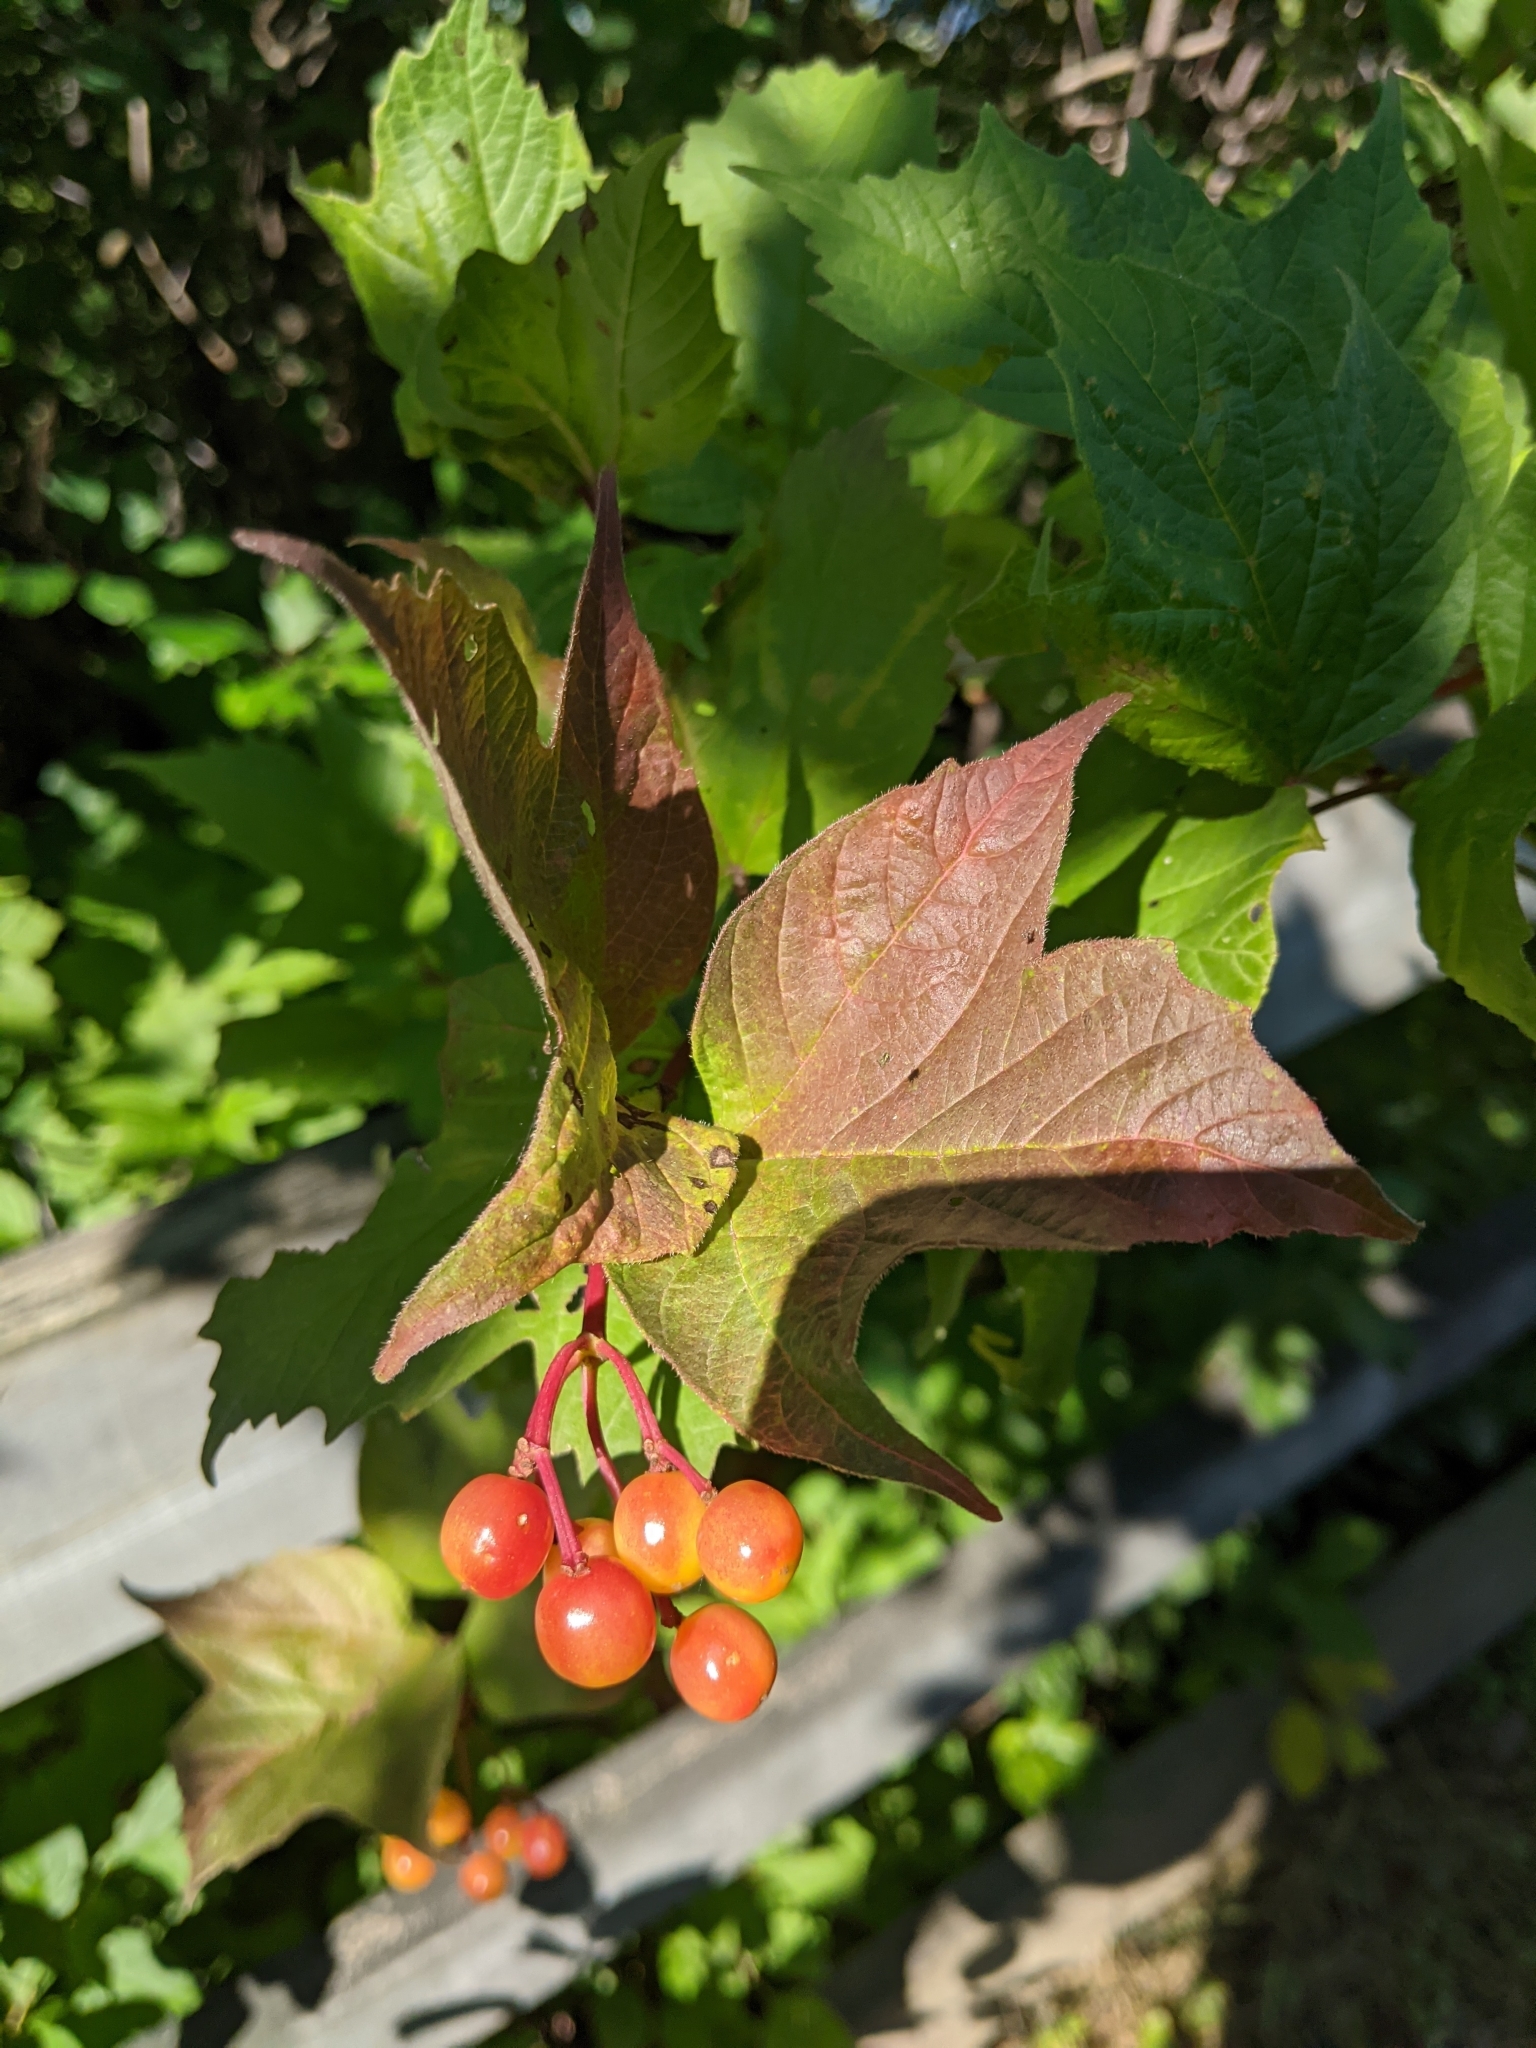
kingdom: Plantae
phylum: Tracheophyta
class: Magnoliopsida
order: Dipsacales
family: Viburnaceae
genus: Viburnum
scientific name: Viburnum opulus
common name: Guelder-rose
